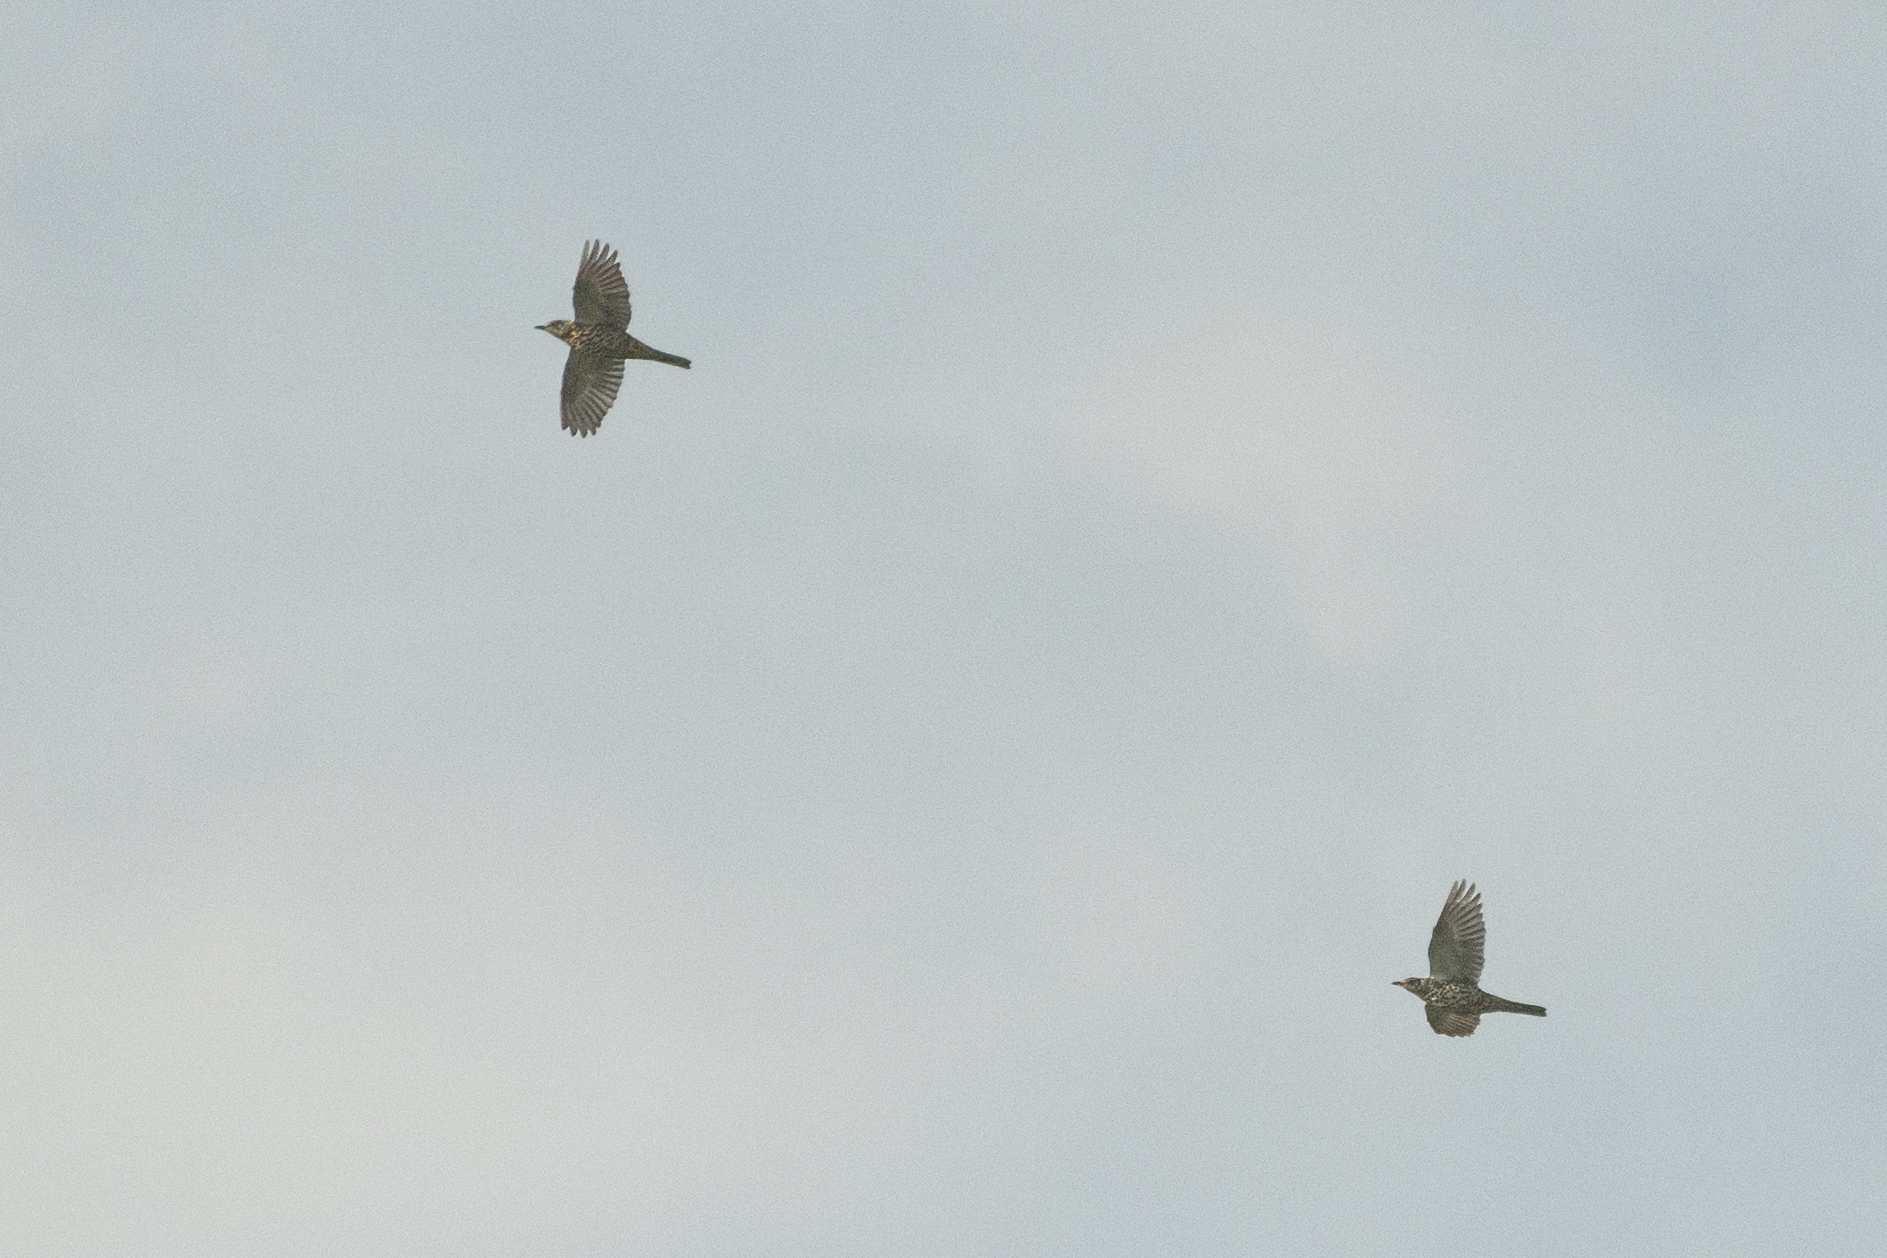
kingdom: Animalia
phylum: Chordata
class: Aves
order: Passeriformes
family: Turdidae
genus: Turdus
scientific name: Turdus viscivorus
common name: Mistle thrush
